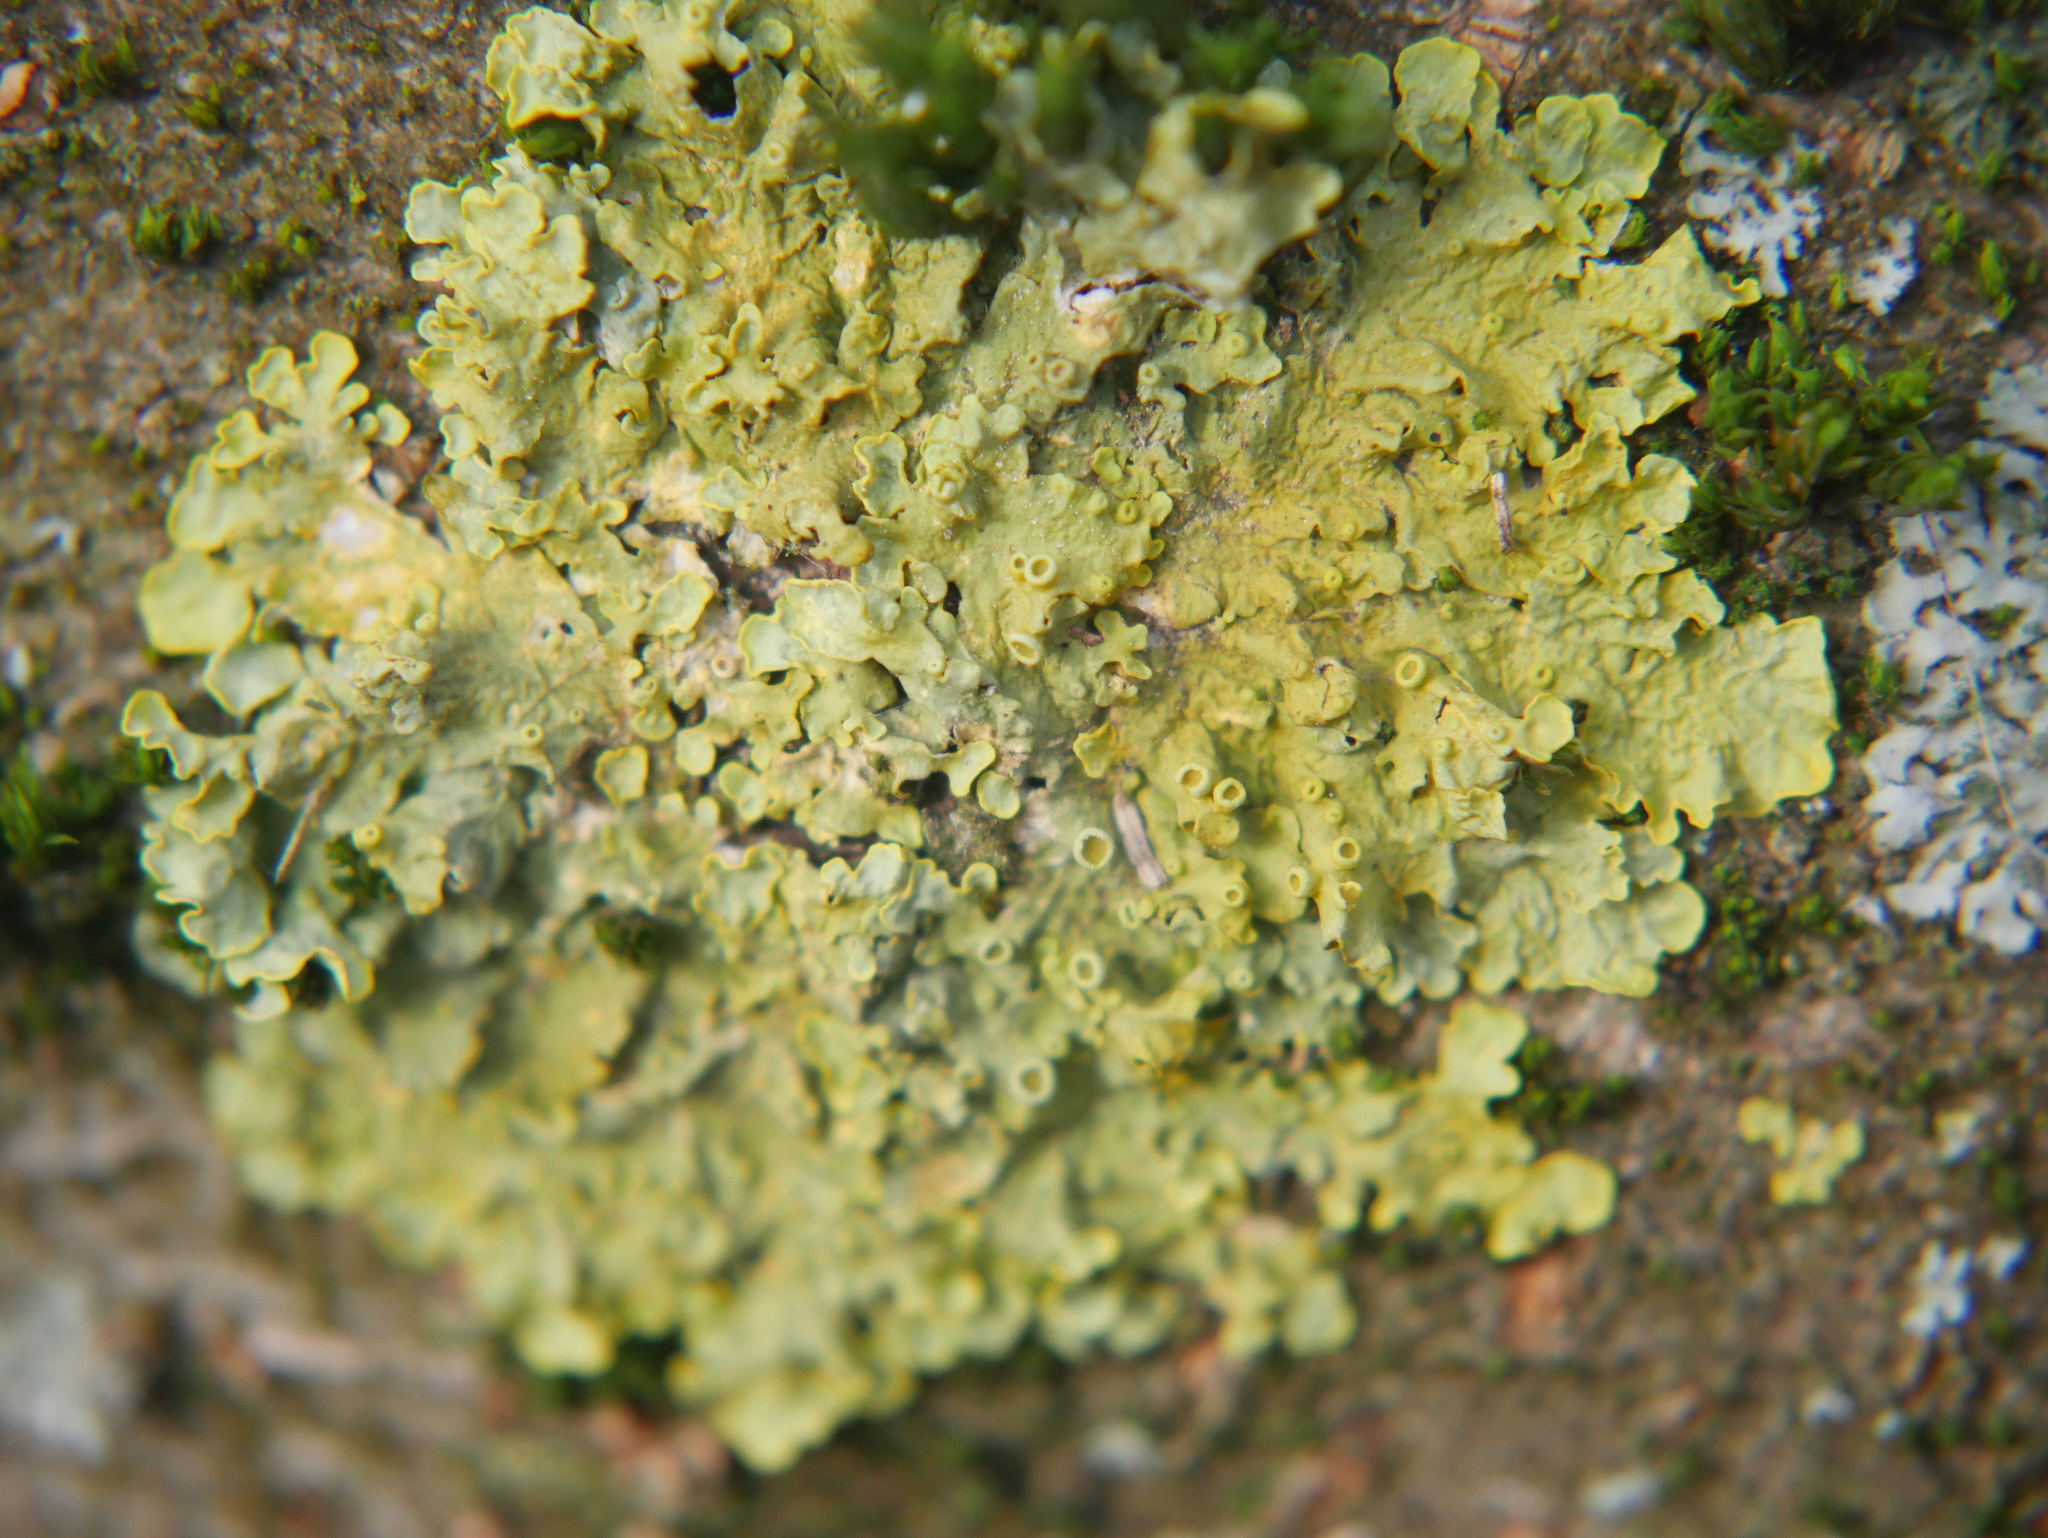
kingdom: Fungi
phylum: Ascomycota
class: Lecanoromycetes
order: Teloschistales
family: Teloschistaceae
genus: Xanthoria
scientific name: Xanthoria parietina
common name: Common orange lichen
